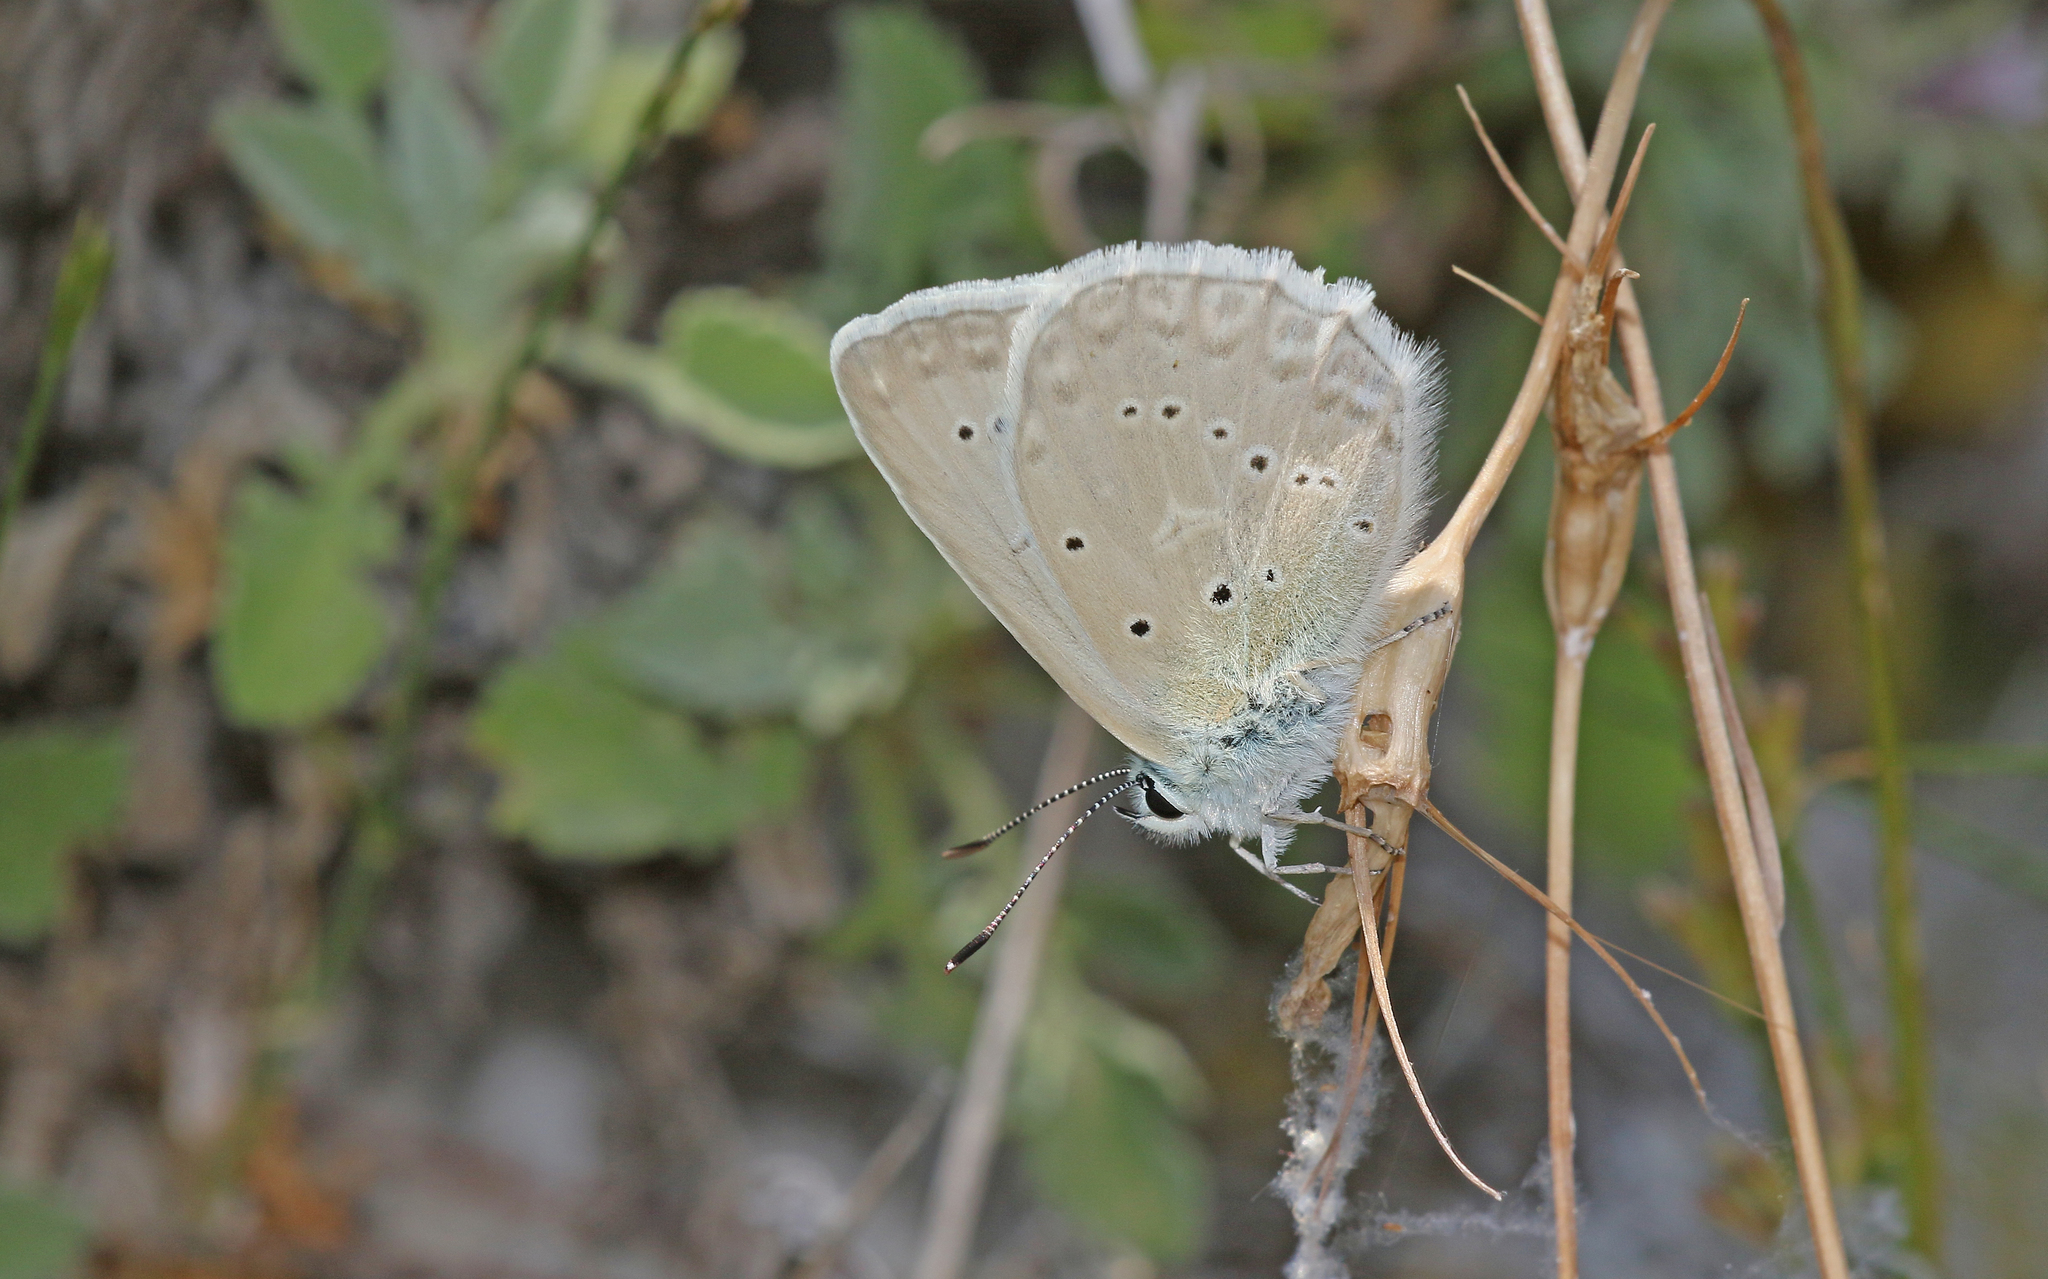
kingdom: Animalia
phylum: Arthropoda
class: Insecta
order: Lepidoptera
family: Lycaenidae
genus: Polyommatus
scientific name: Polyommatus daphnis
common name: Meleager's blue
